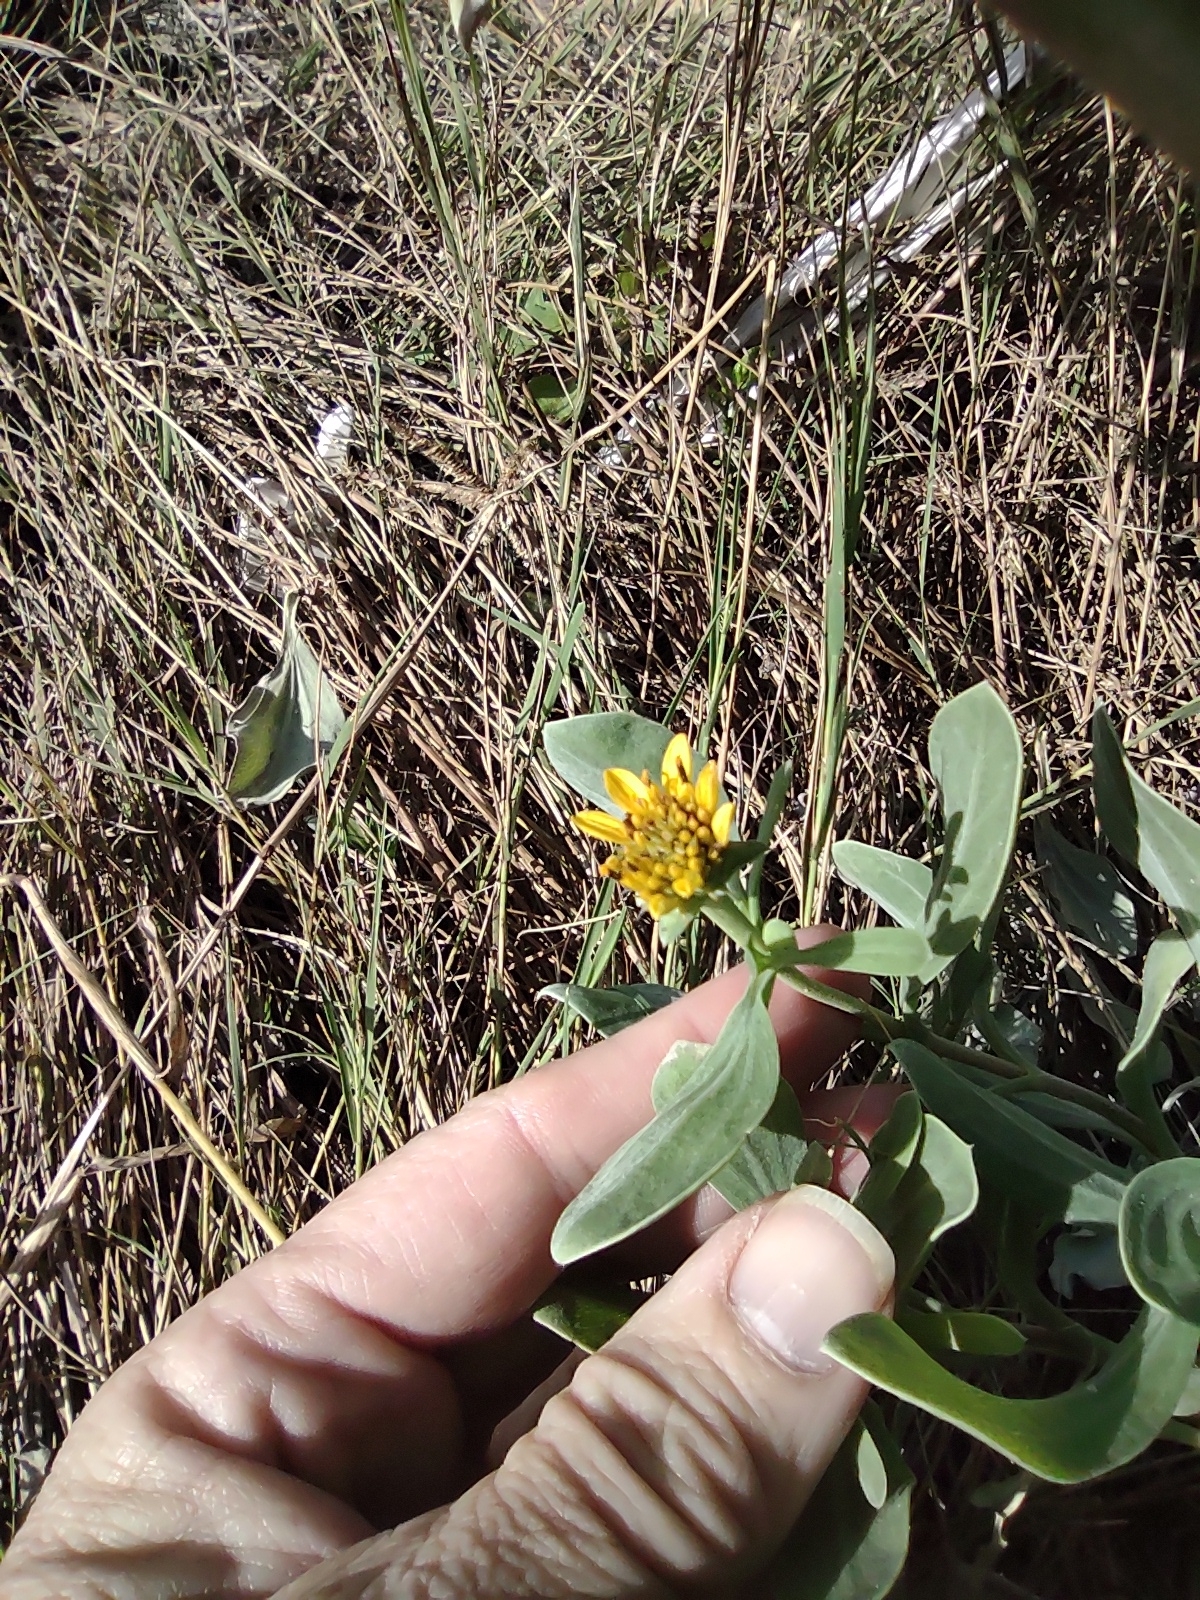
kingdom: Plantae
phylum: Tracheophyta
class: Magnoliopsida
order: Asterales
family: Asteraceae
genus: Borrichia
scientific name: Borrichia frutescens
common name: Sea oxeye
